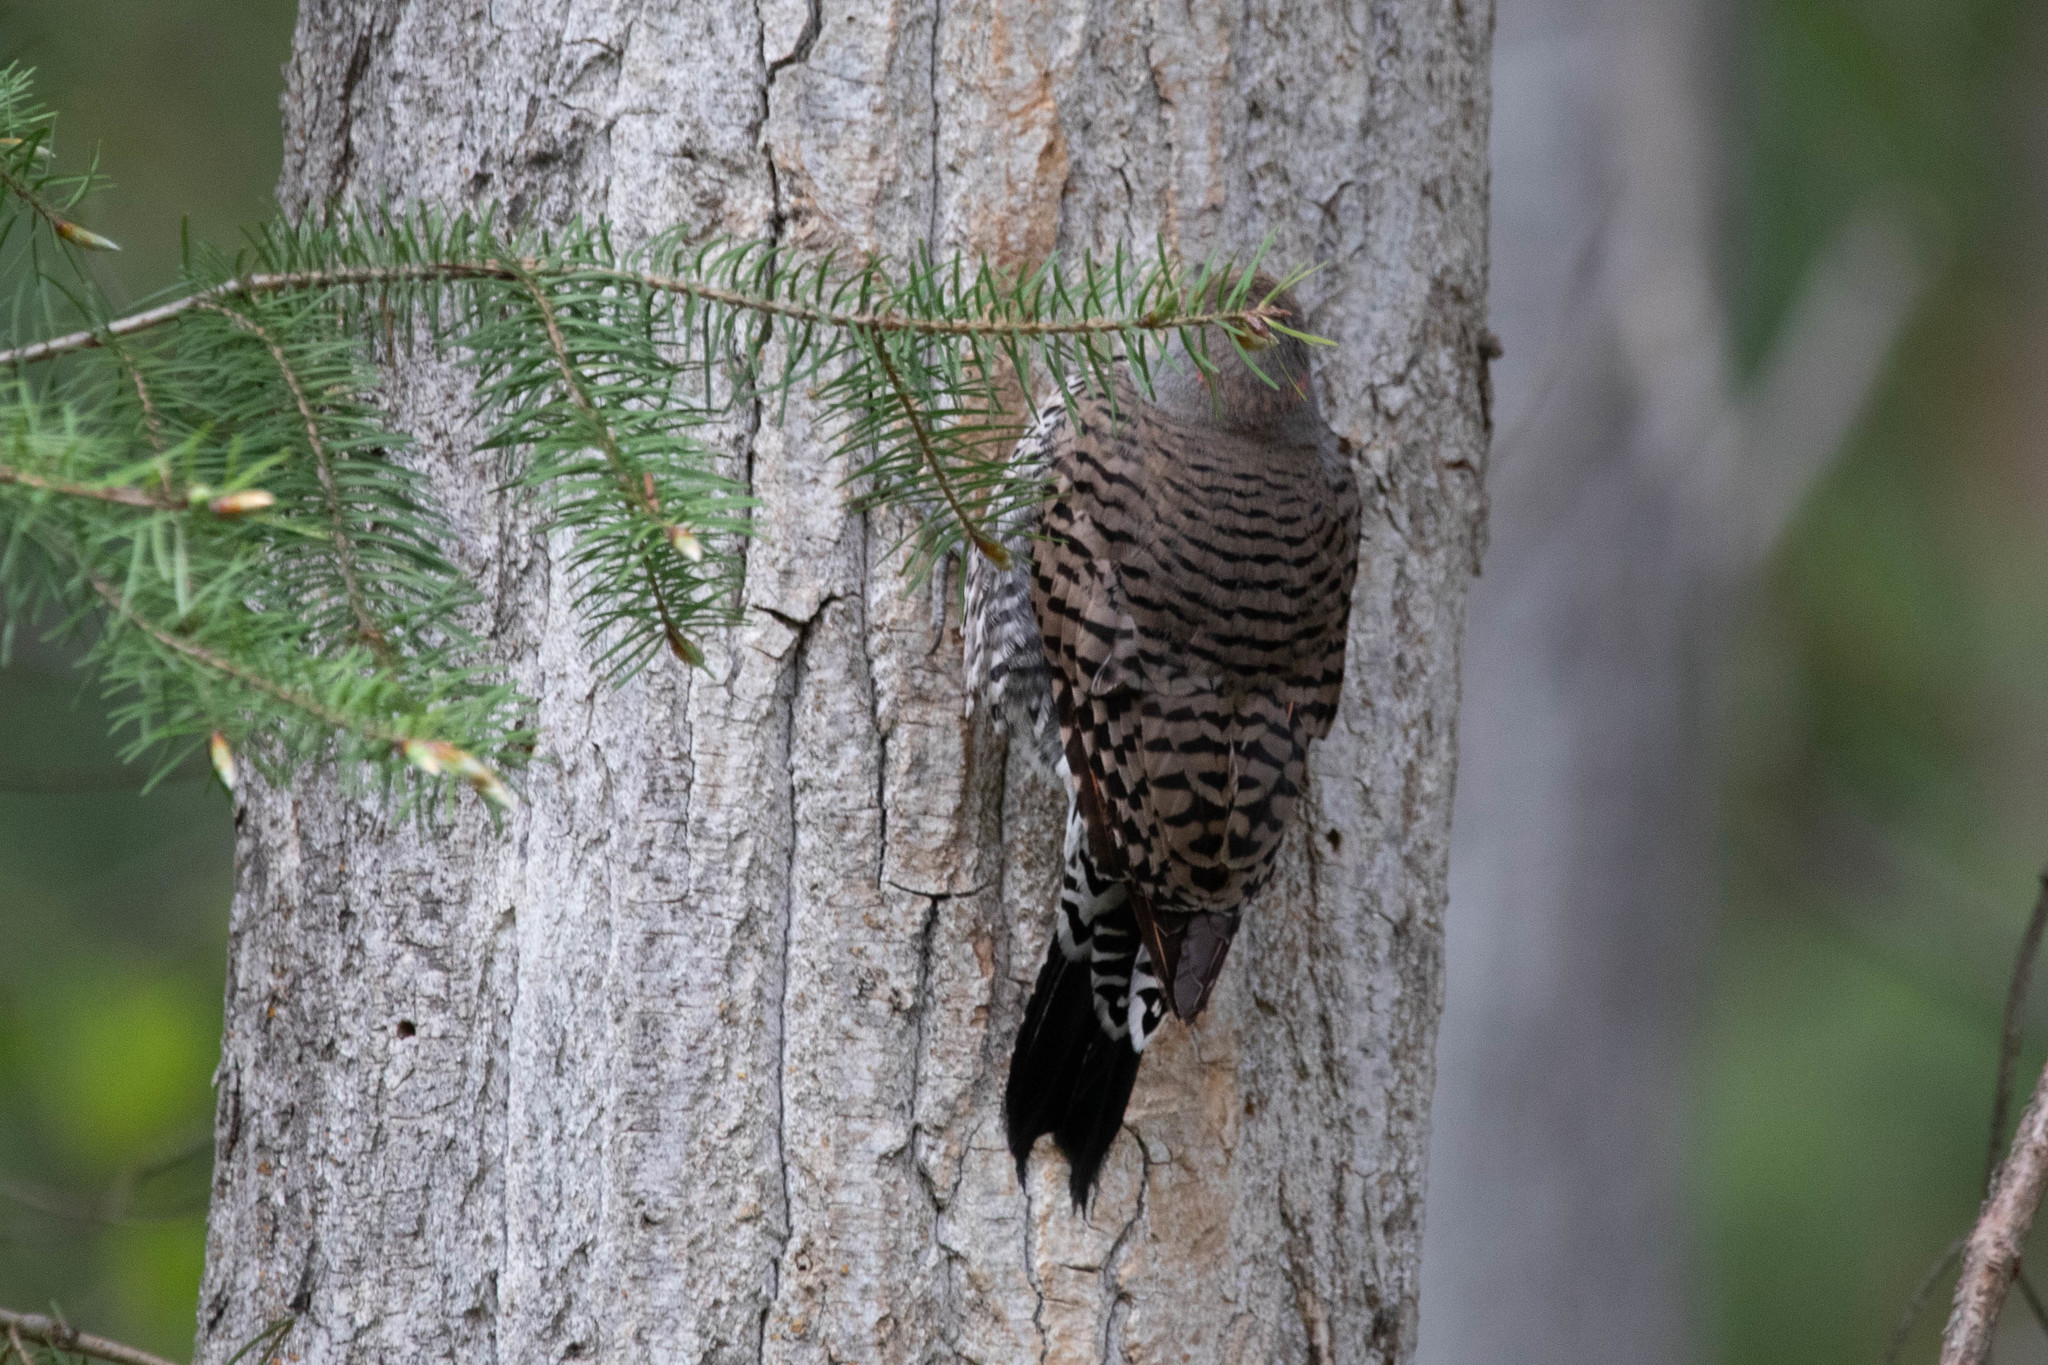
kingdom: Animalia
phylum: Chordata
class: Aves
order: Piciformes
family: Picidae
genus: Colaptes
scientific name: Colaptes auratus
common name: Northern flicker
